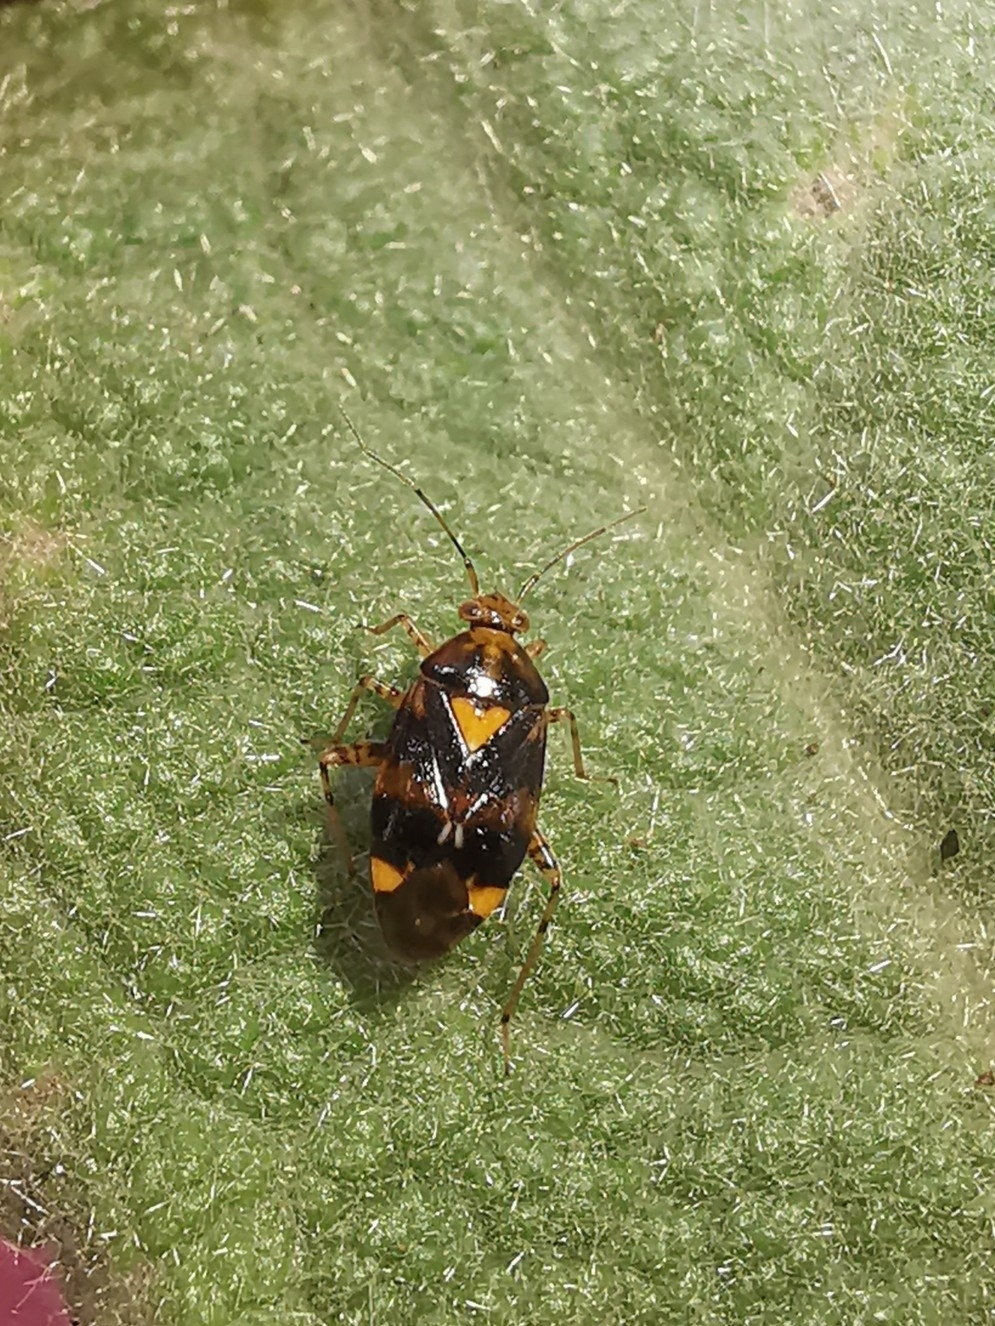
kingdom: Animalia
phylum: Arthropoda
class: Insecta
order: Hemiptera
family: Miridae
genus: Liocoris
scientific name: Liocoris tripustulatus
